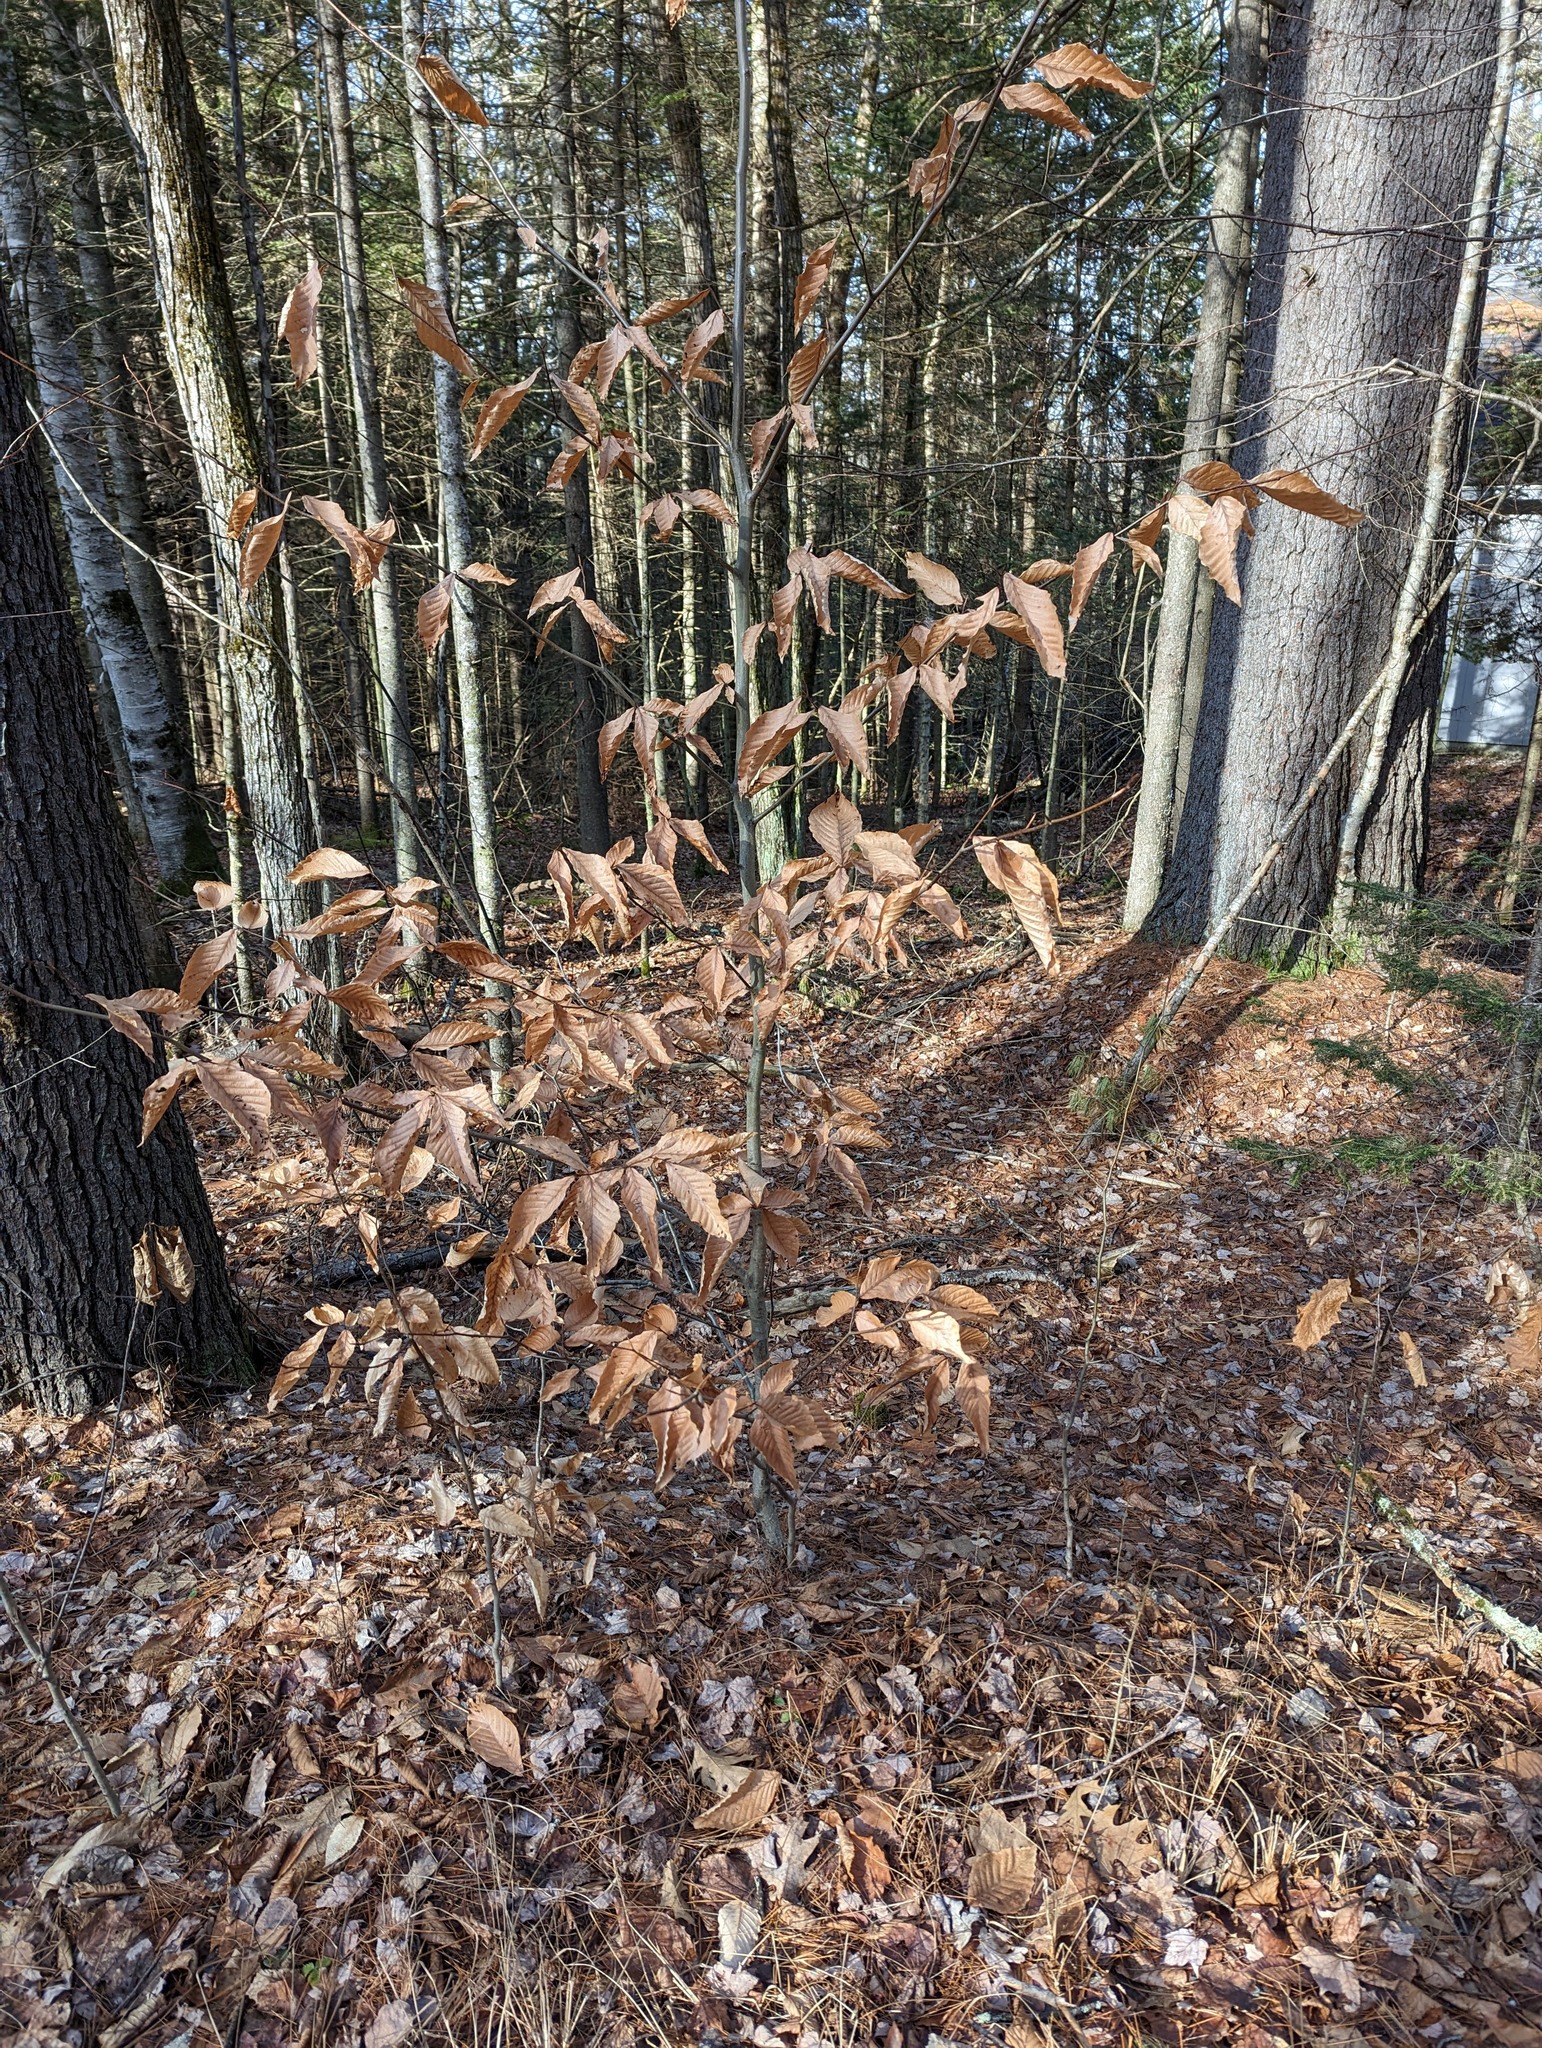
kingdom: Plantae
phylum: Tracheophyta
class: Magnoliopsida
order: Fagales
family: Fagaceae
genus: Fagus
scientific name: Fagus grandifolia
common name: American beech
